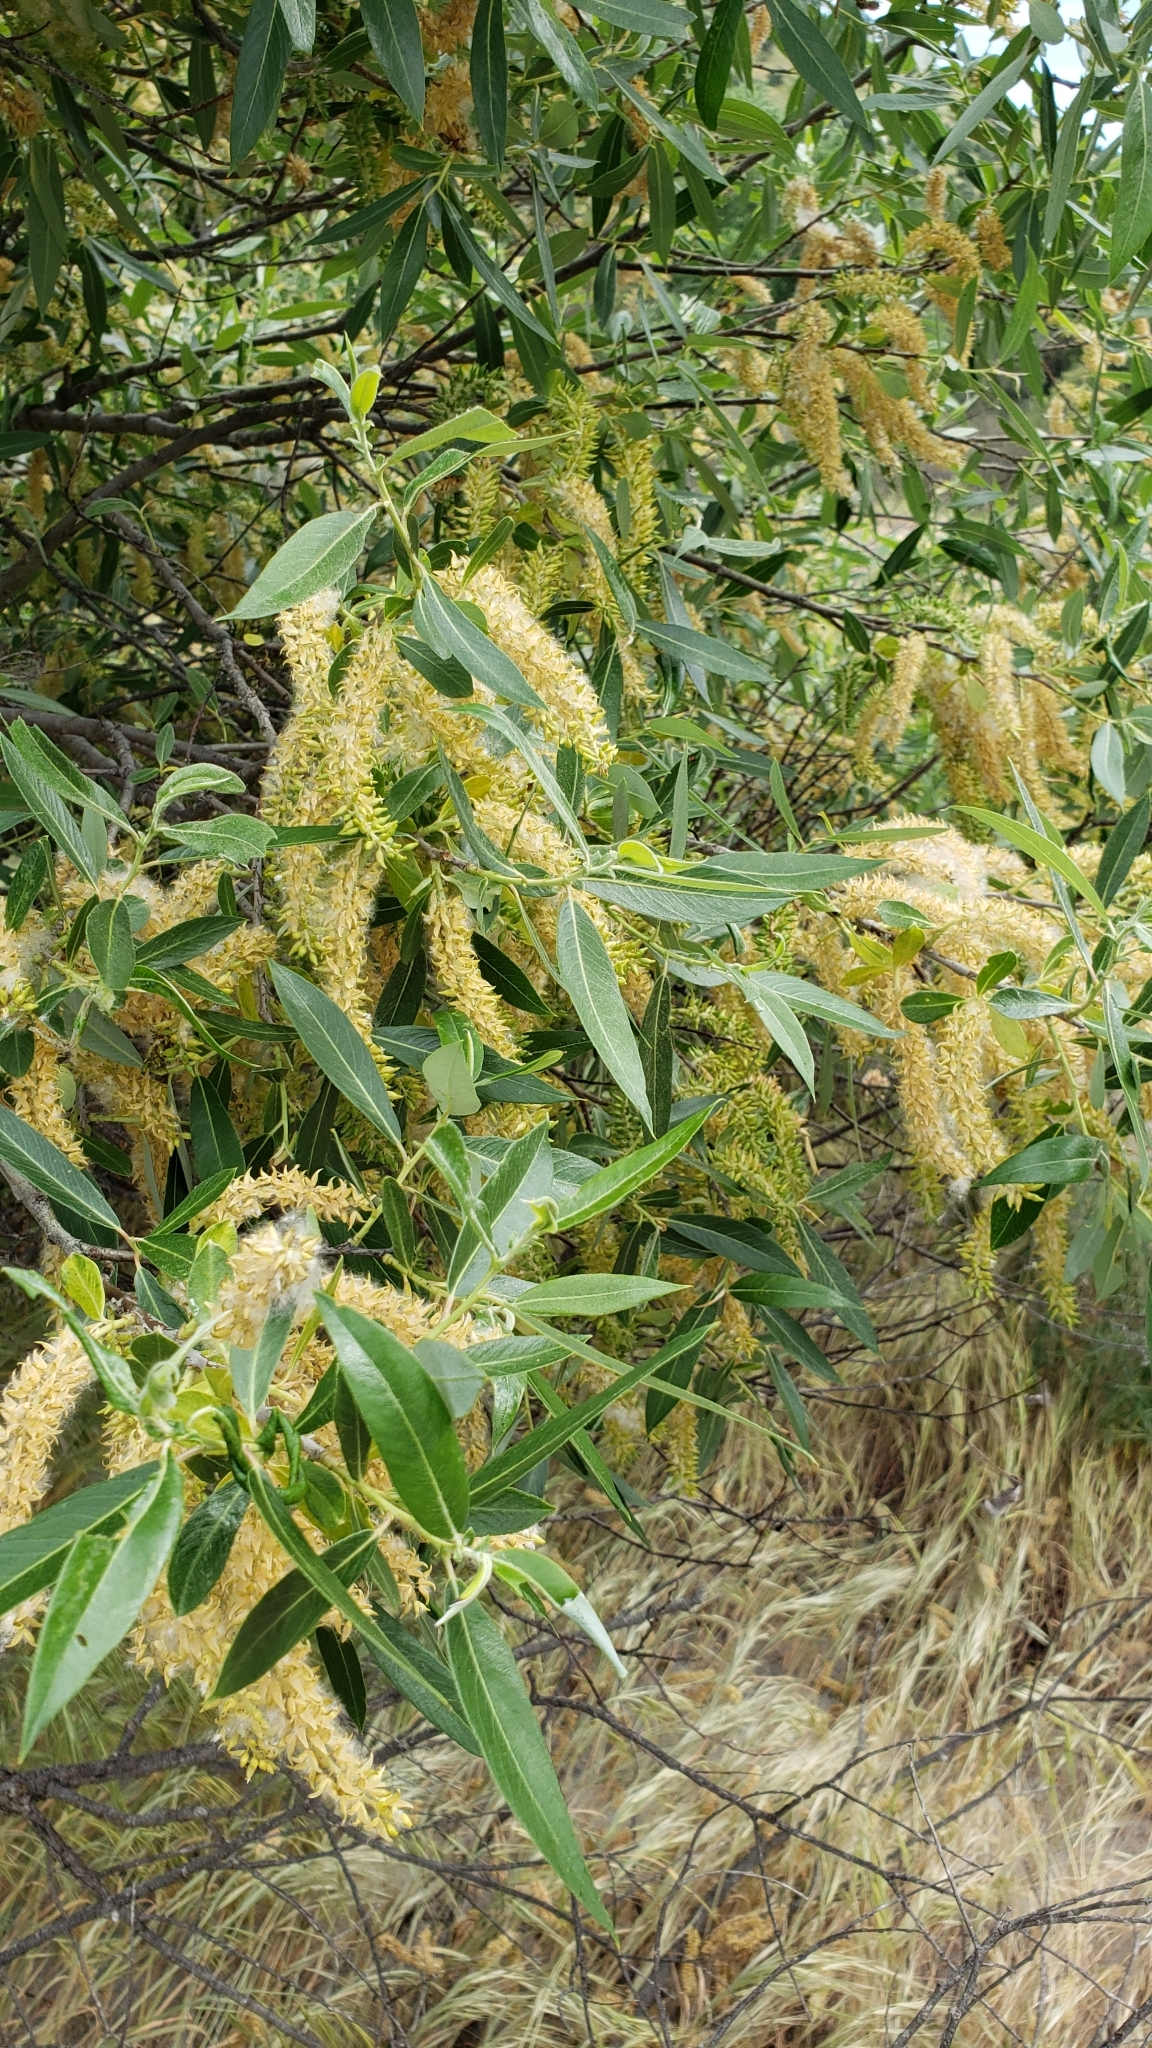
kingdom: Plantae
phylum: Tracheophyta
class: Magnoliopsida
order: Malpighiales
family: Salicaceae
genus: Salix
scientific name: Salix lasiolepis
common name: Arroyo willow
